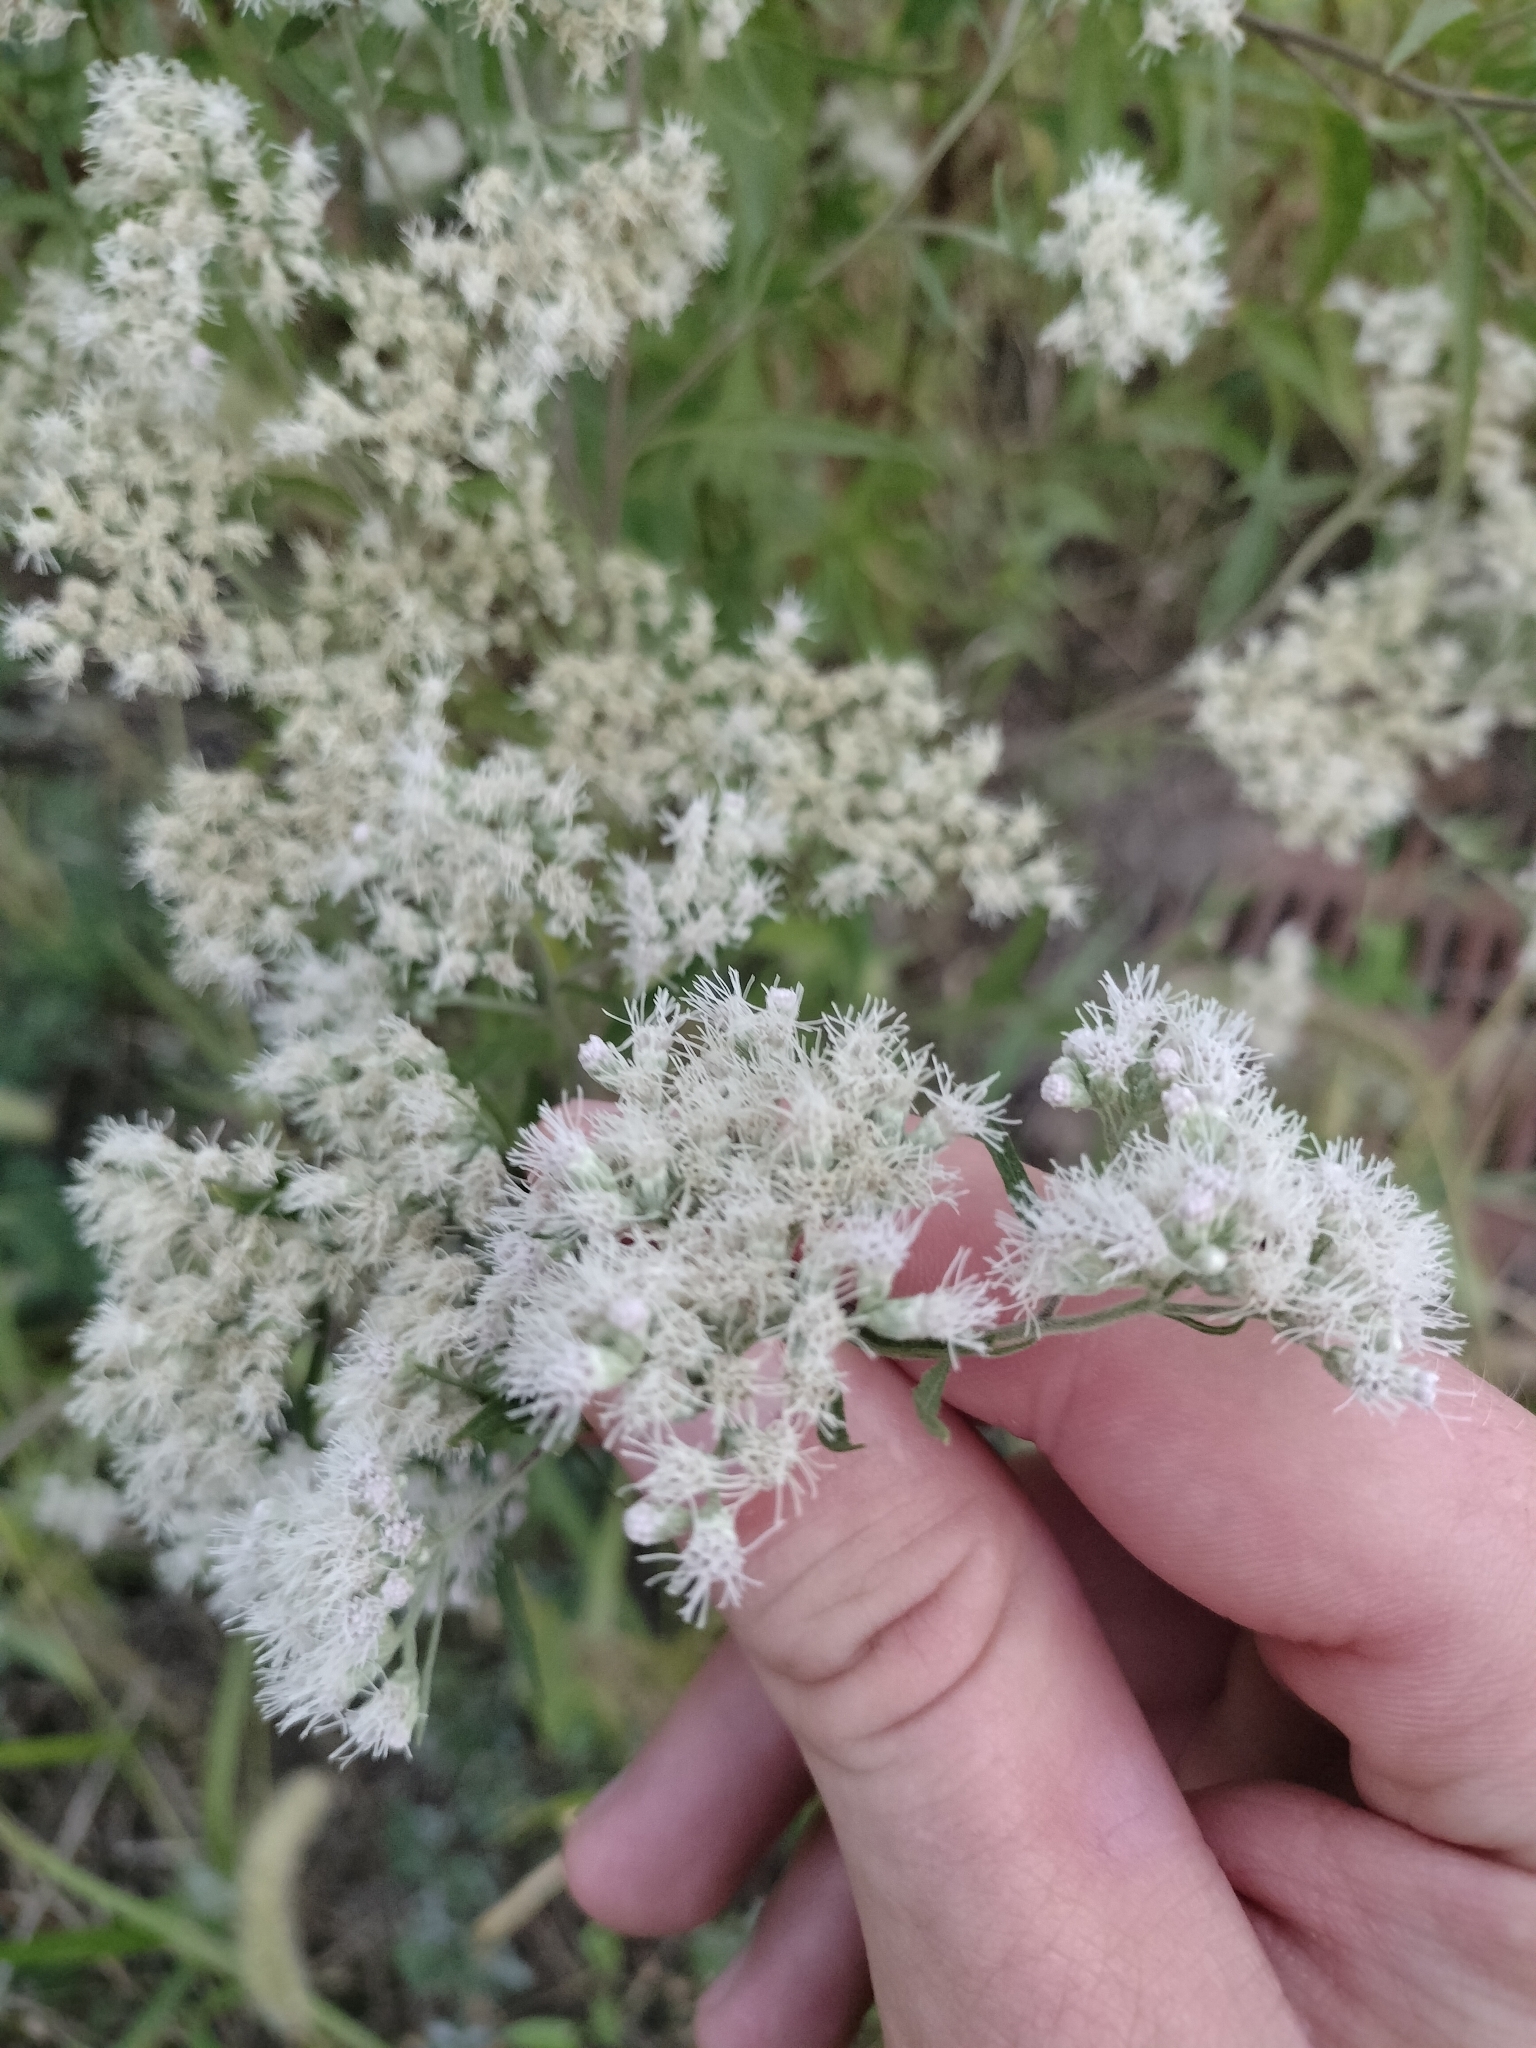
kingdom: Plantae
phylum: Tracheophyta
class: Magnoliopsida
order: Asterales
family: Asteraceae
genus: Eupatorium
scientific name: Eupatorium serotinum
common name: Late boneset
